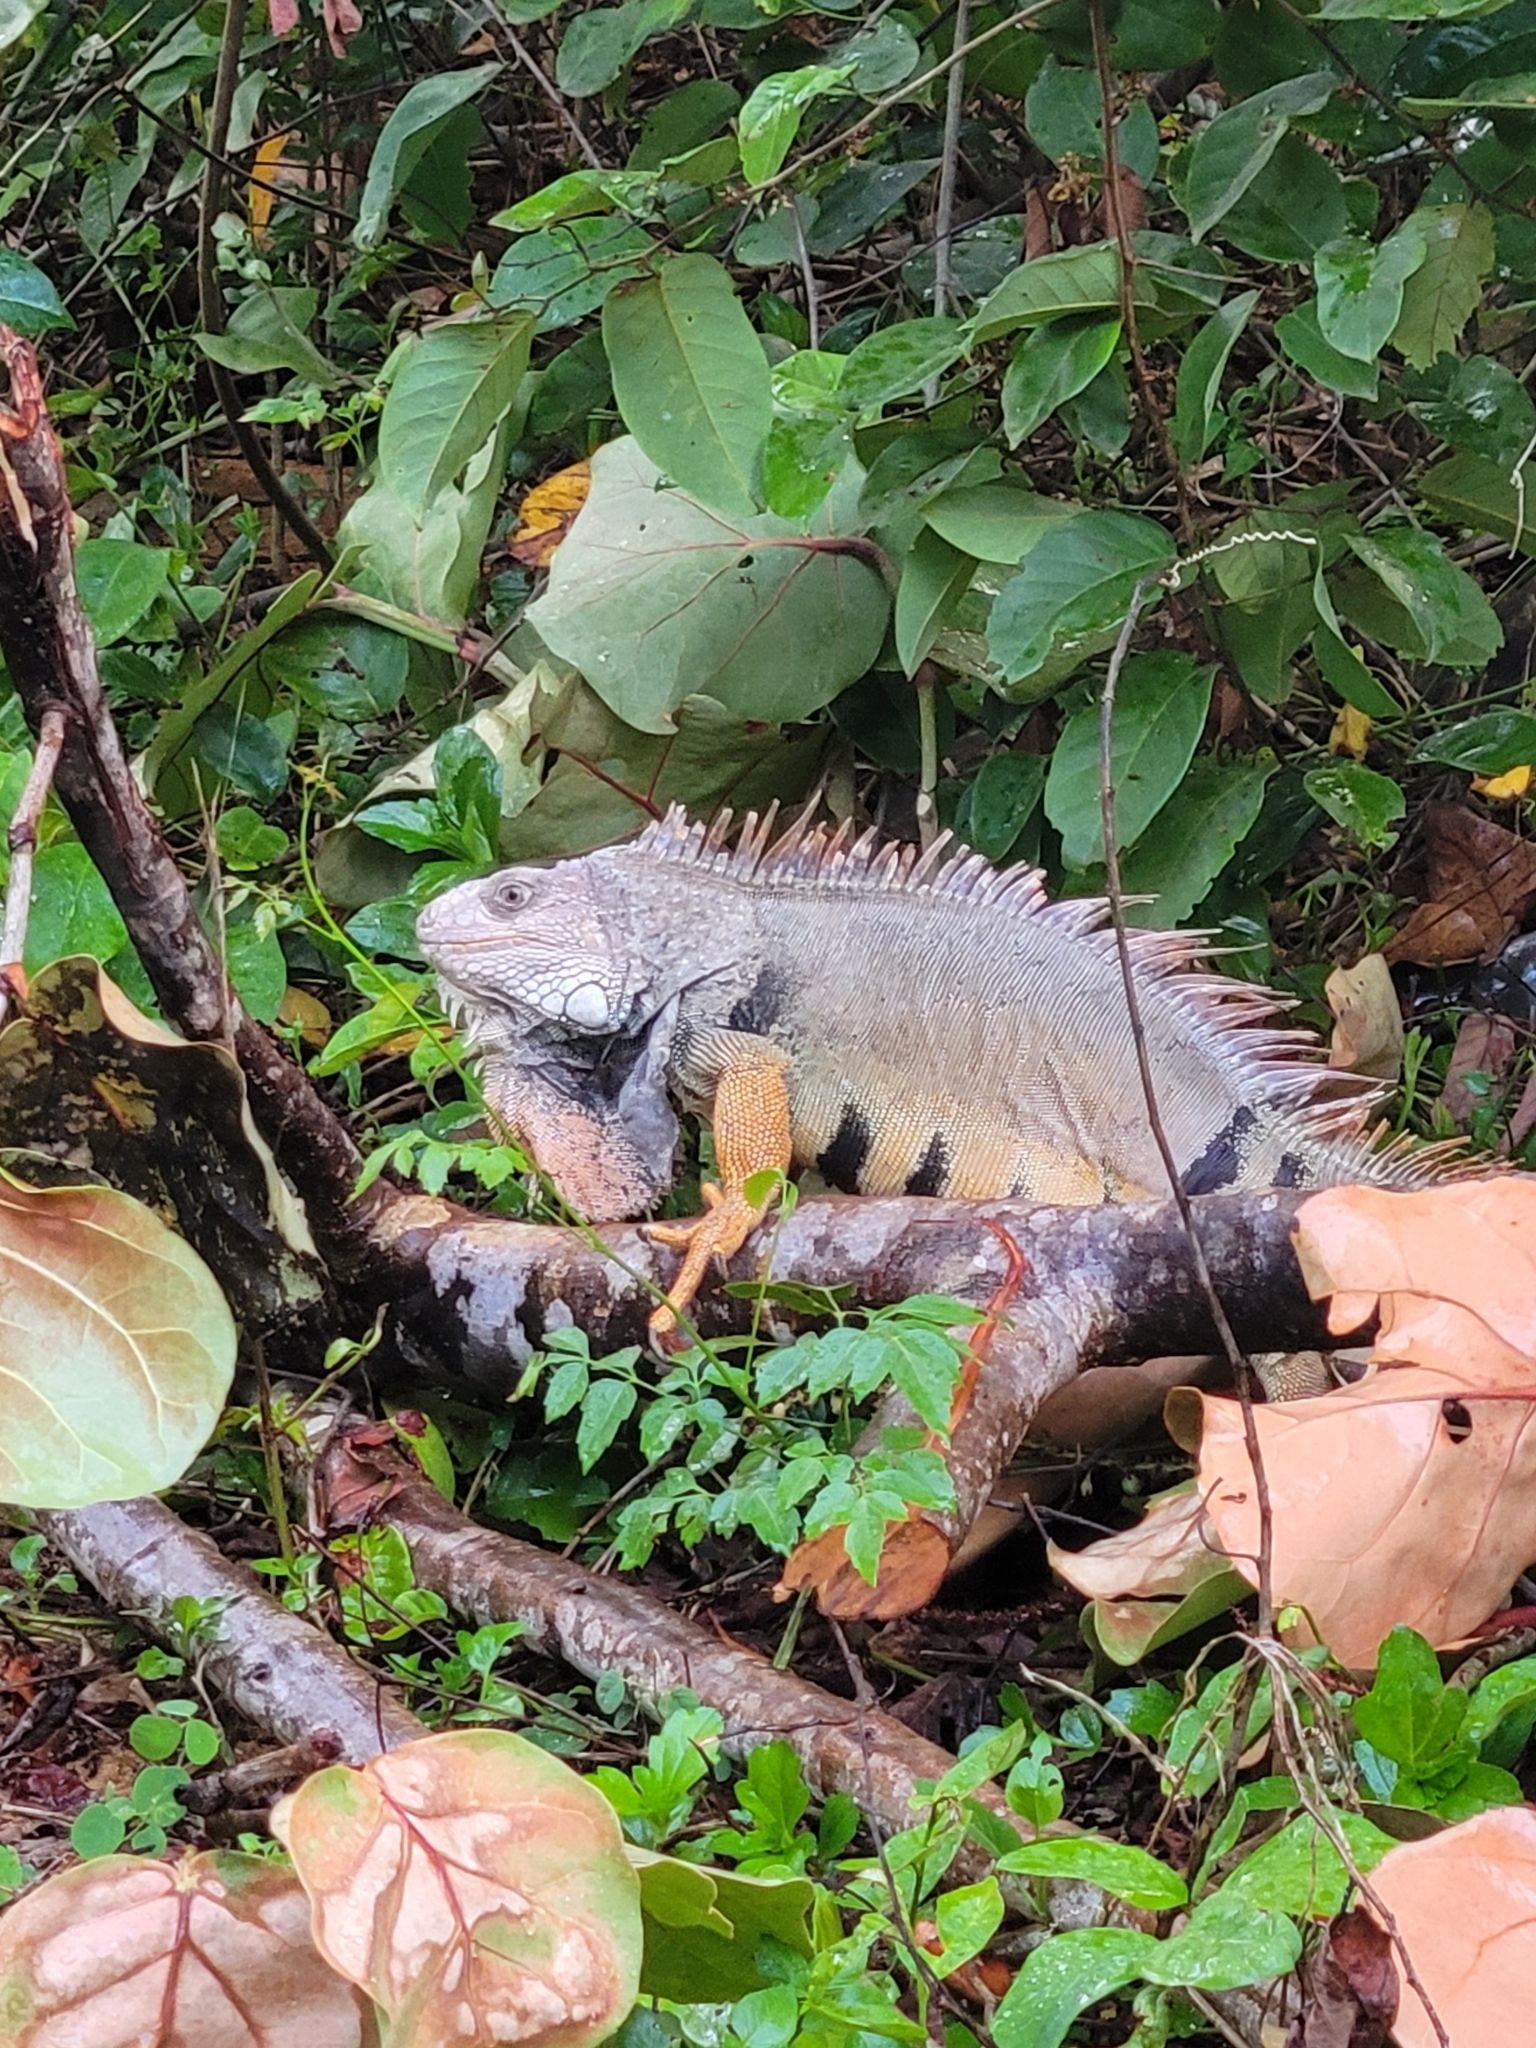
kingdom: Animalia
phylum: Chordata
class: Squamata
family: Iguanidae
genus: Iguana
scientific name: Iguana iguana
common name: Green iguana
